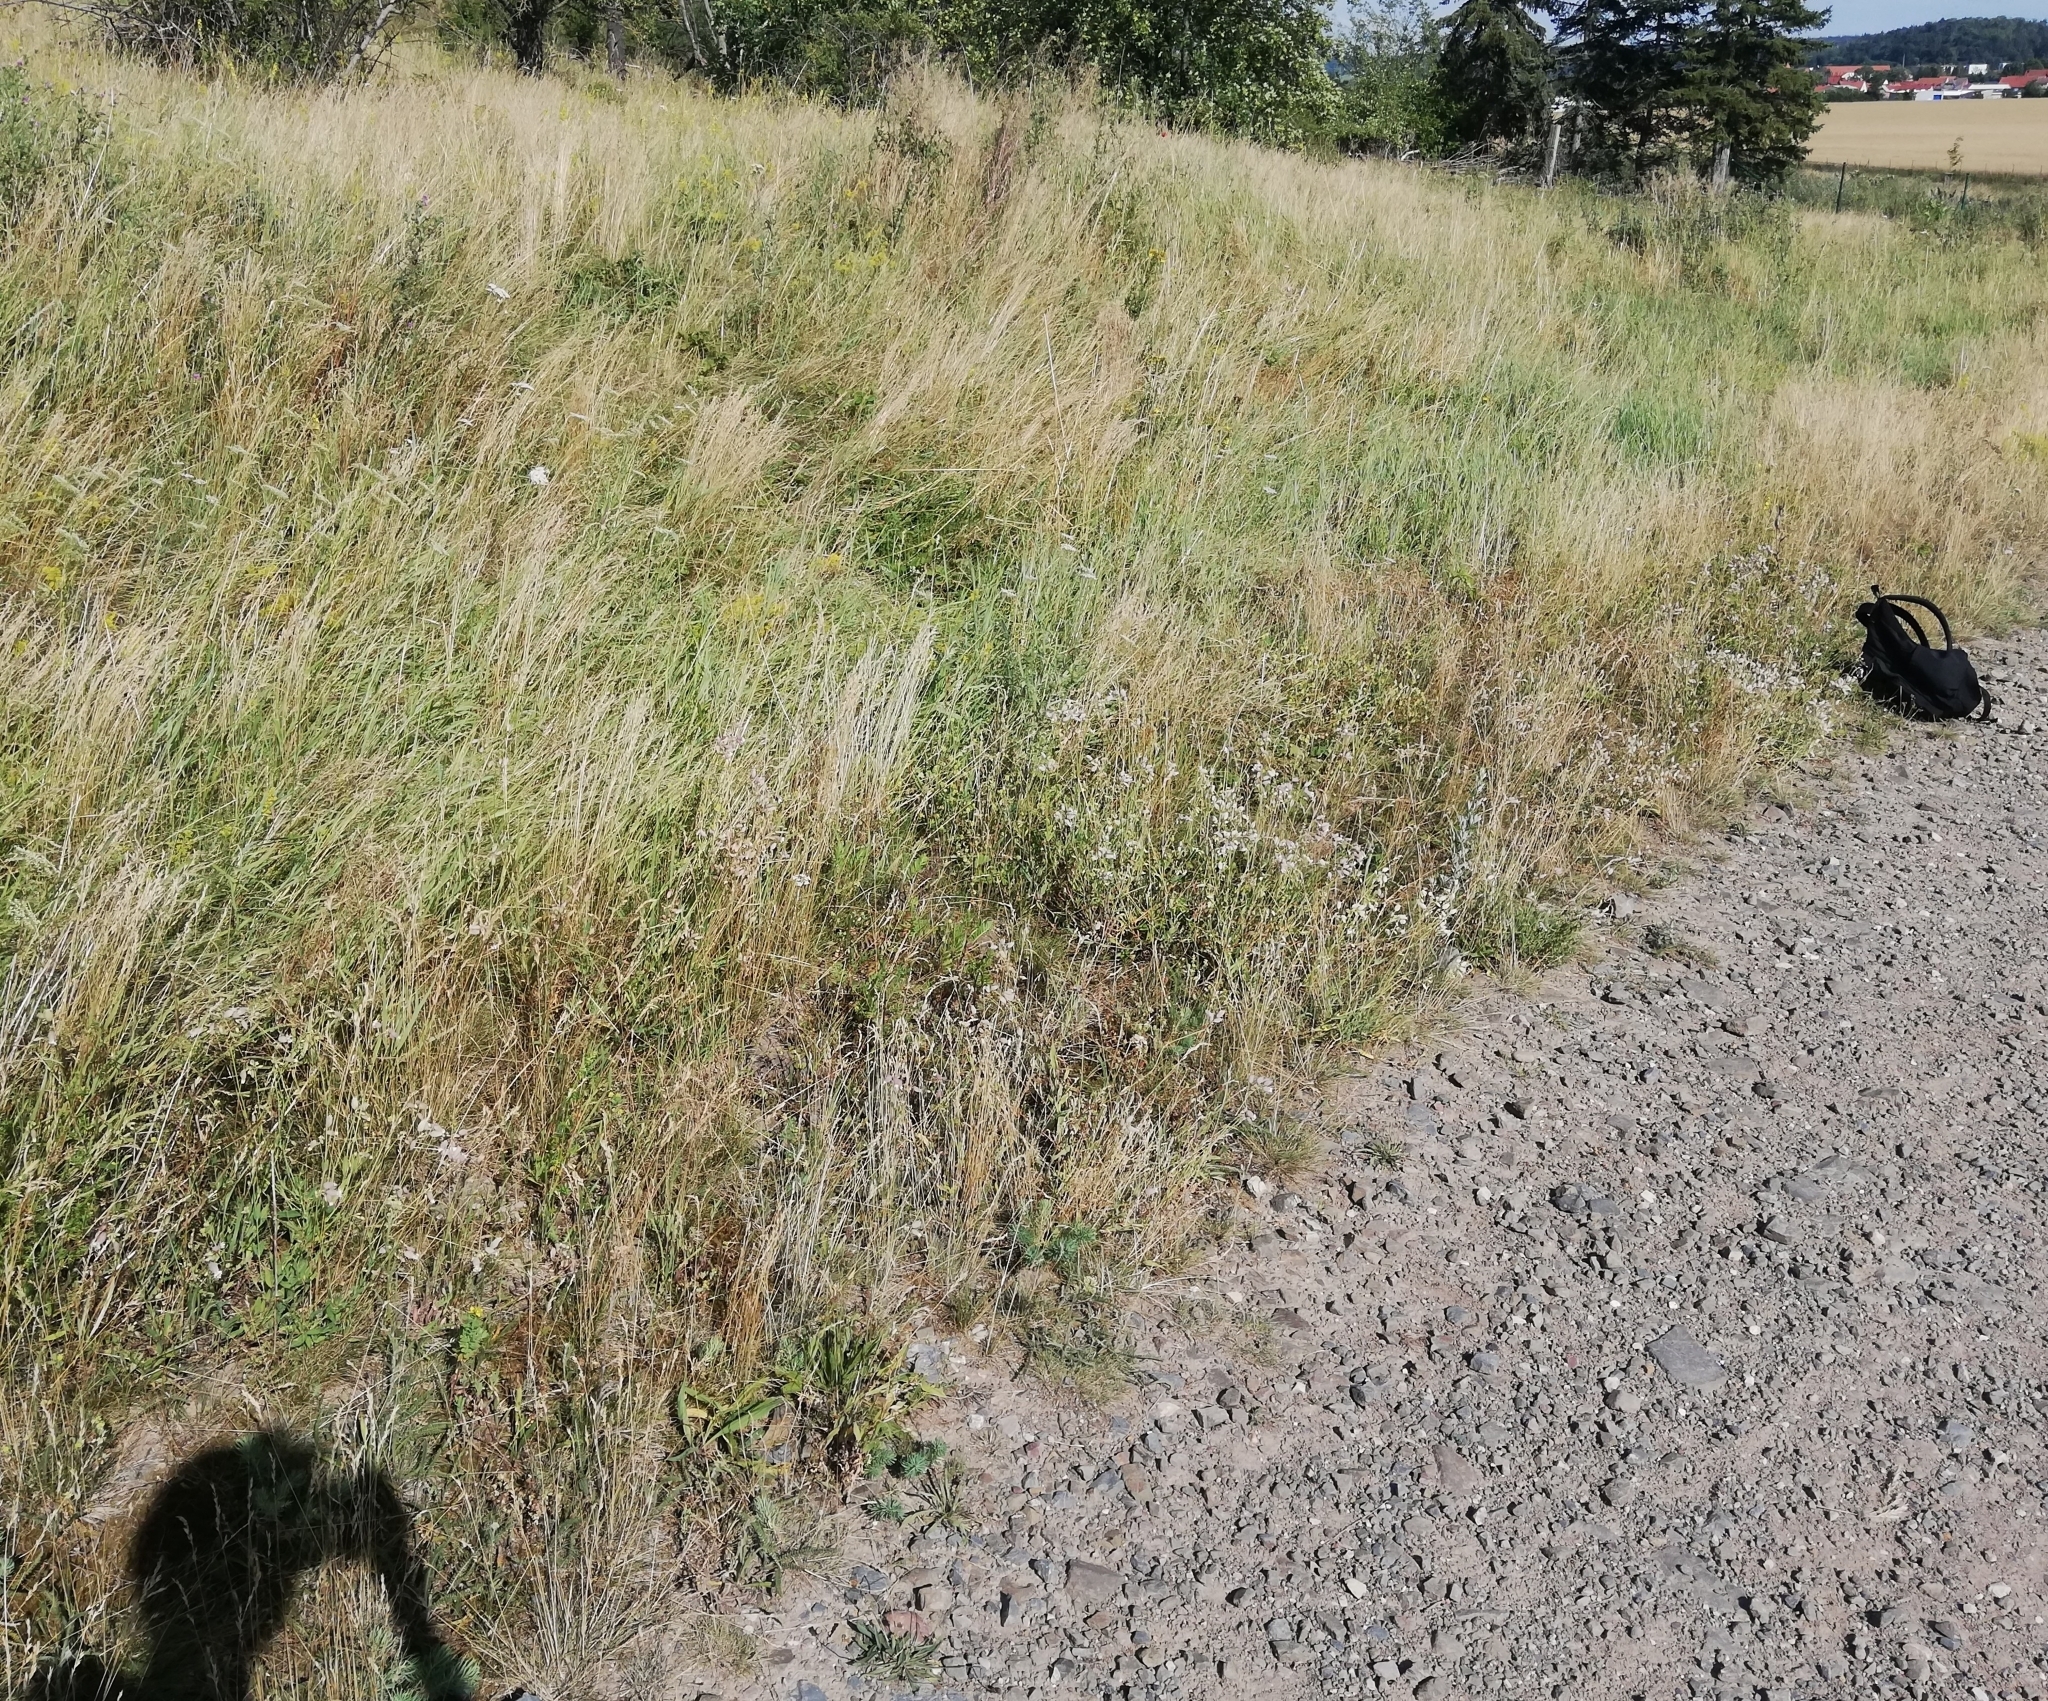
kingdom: Plantae
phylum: Tracheophyta
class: Magnoliopsida
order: Caryophyllales
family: Caryophyllaceae
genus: Silene
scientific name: Silene vulgaris
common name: Bladder campion
